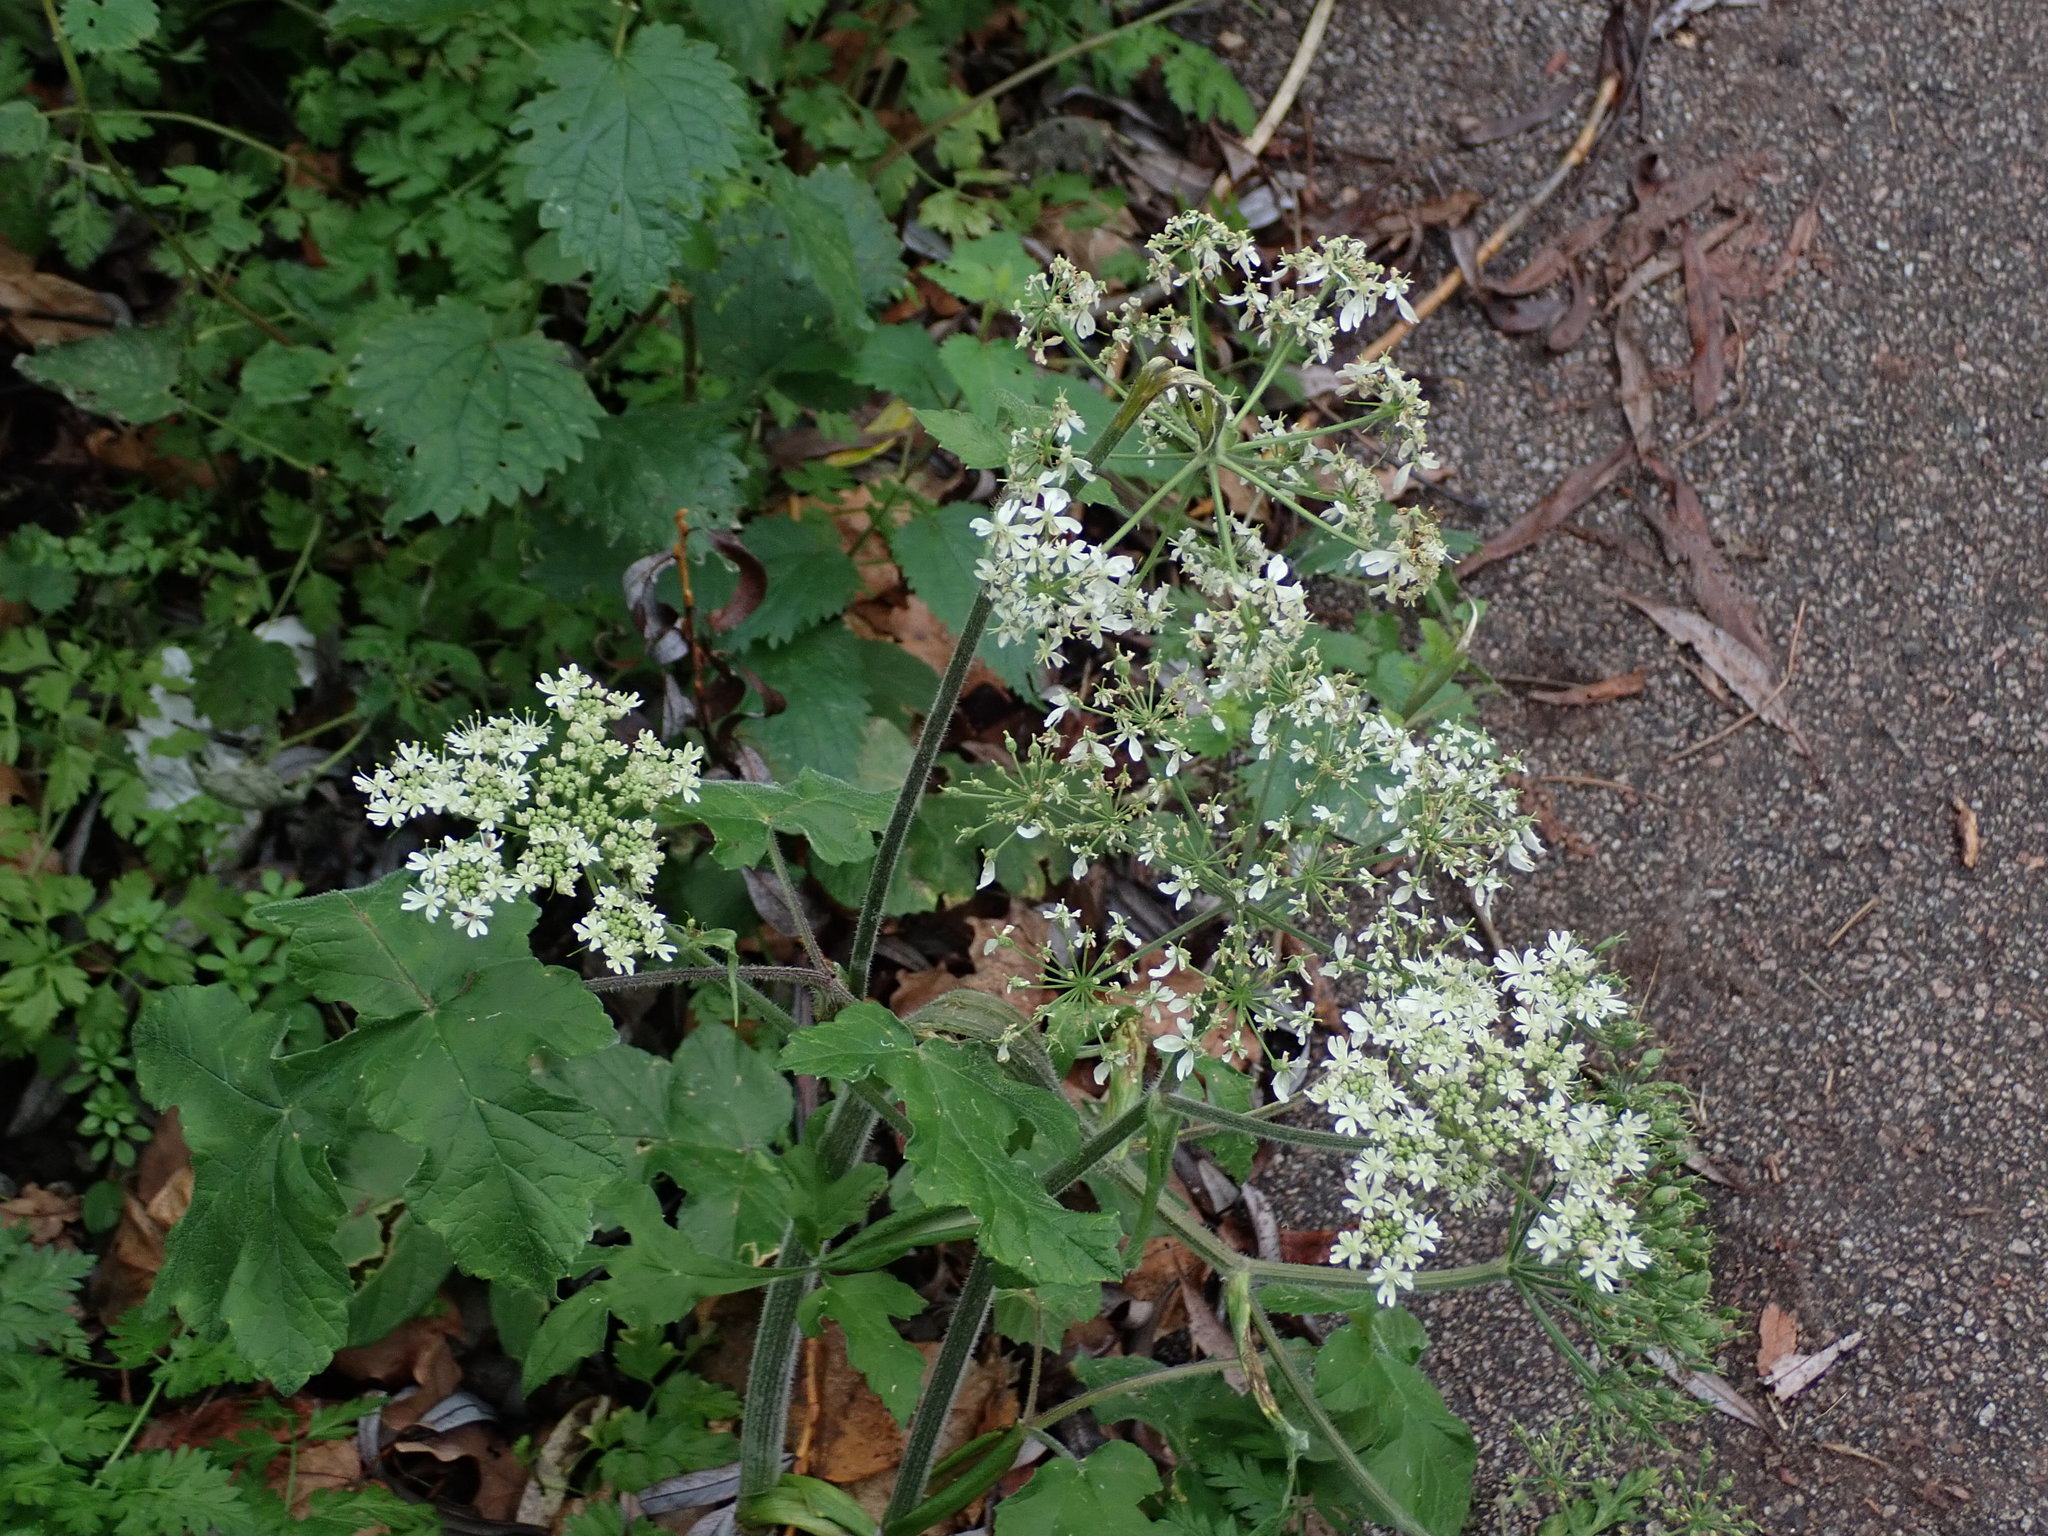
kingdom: Plantae
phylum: Tracheophyta
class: Magnoliopsida
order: Apiales
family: Apiaceae
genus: Heracleum
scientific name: Heracleum sphondylium
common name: Hogweed
